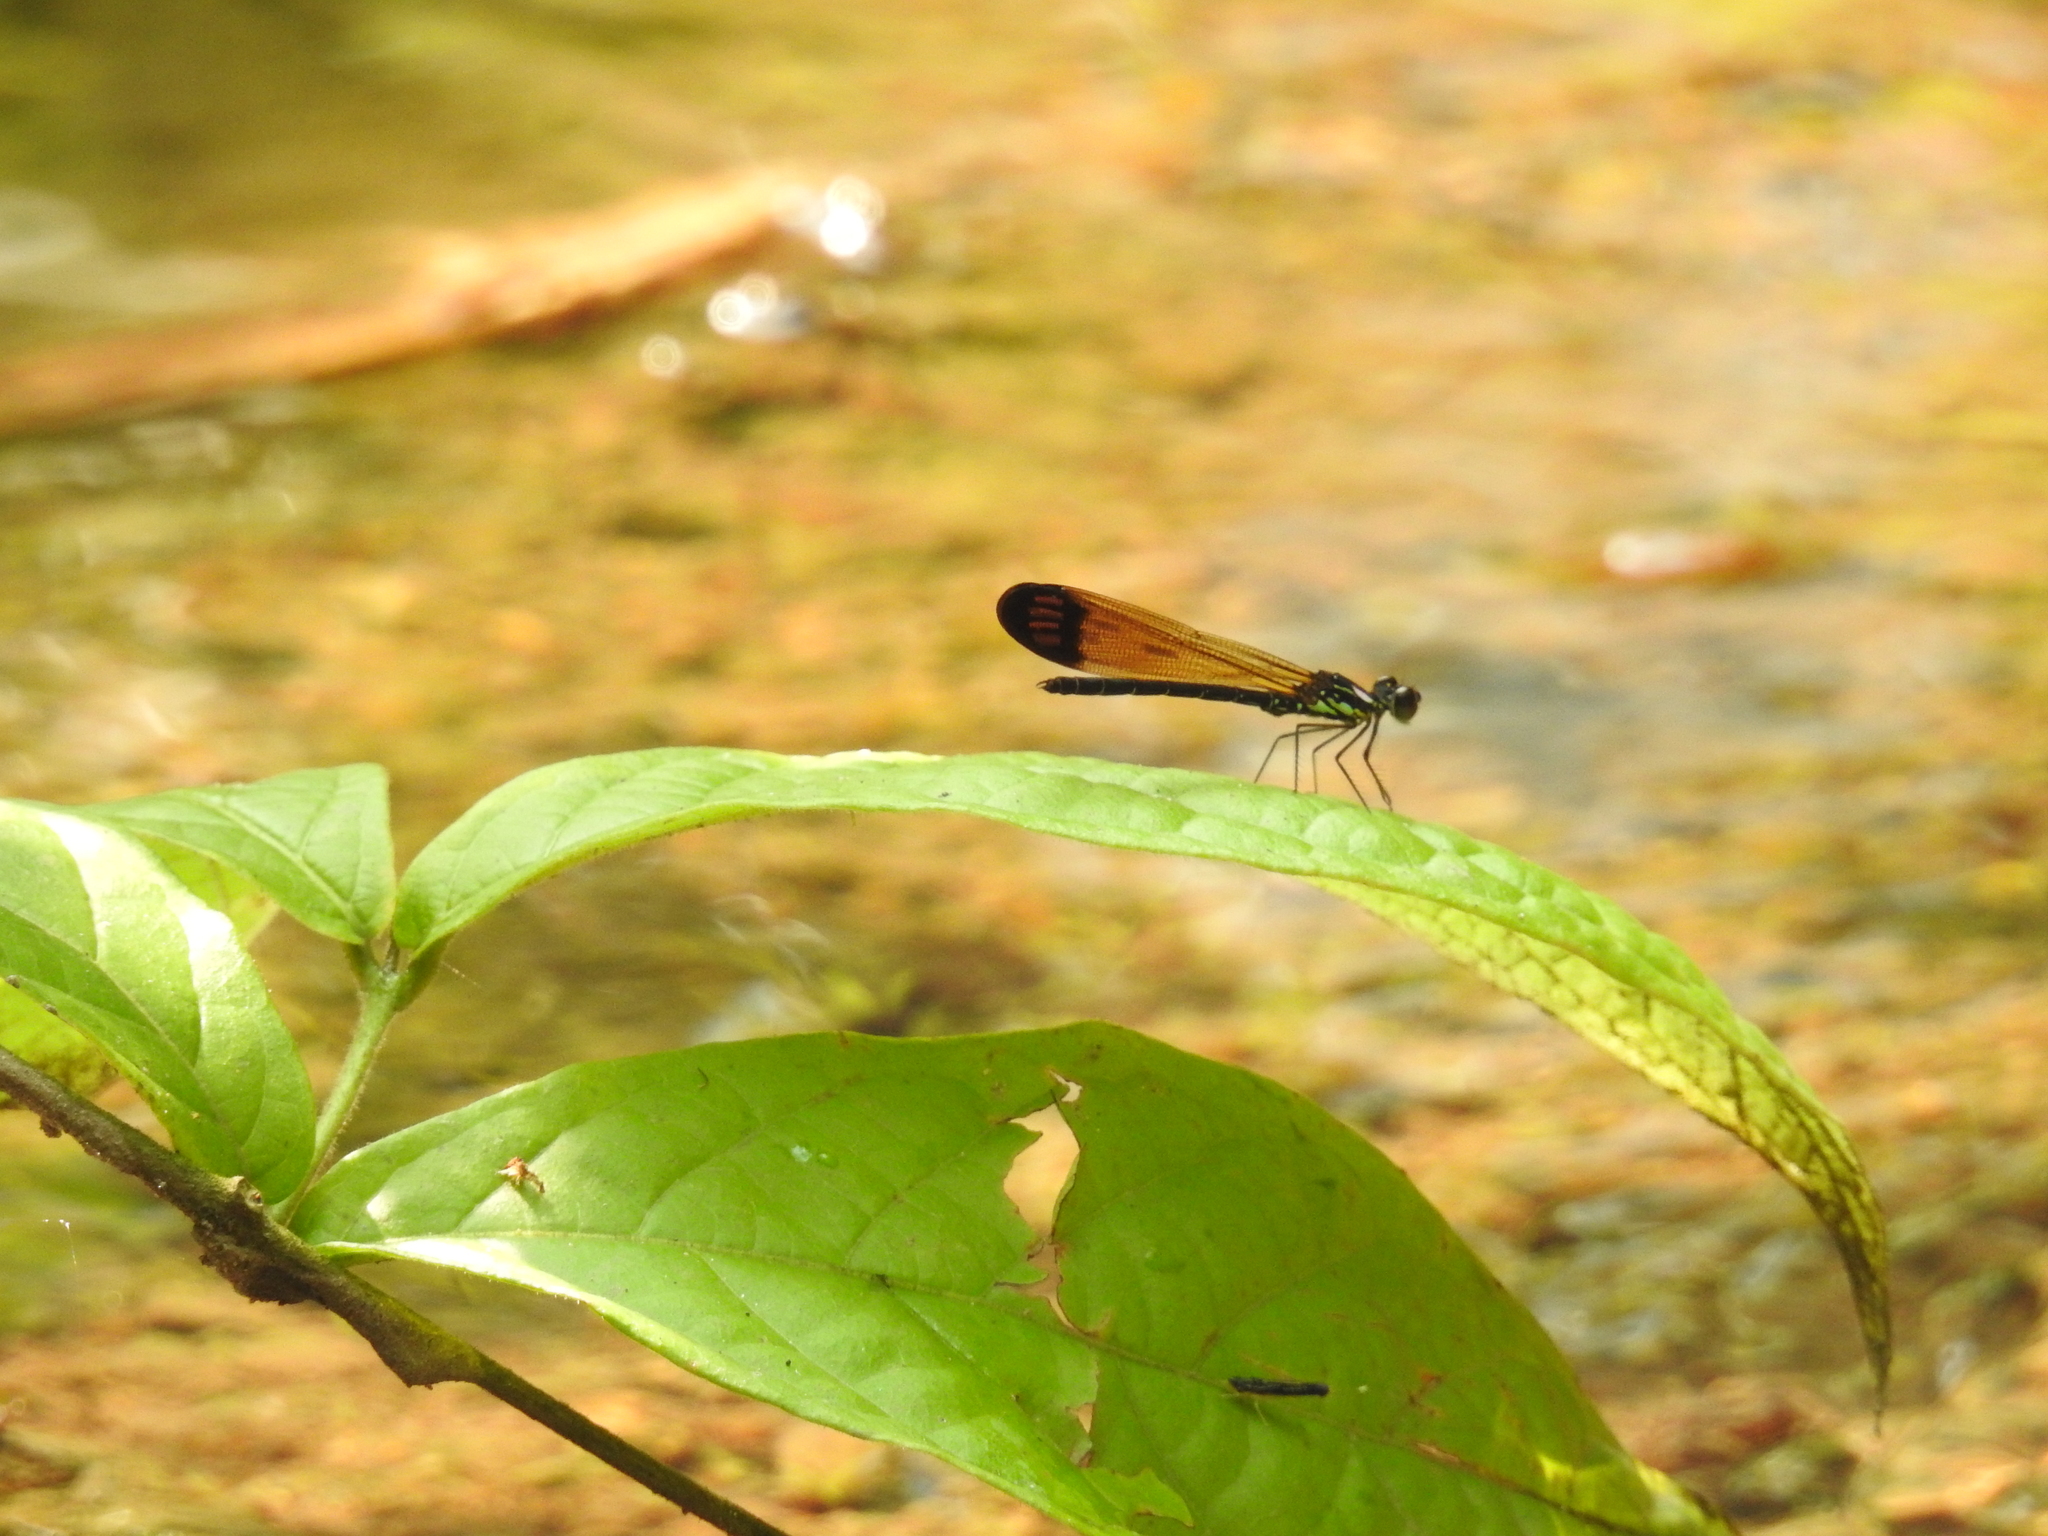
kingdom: Animalia
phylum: Arthropoda
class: Insecta
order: Odonata
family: Chlorocyphidae
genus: Heliocypha
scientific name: Heliocypha biforata
